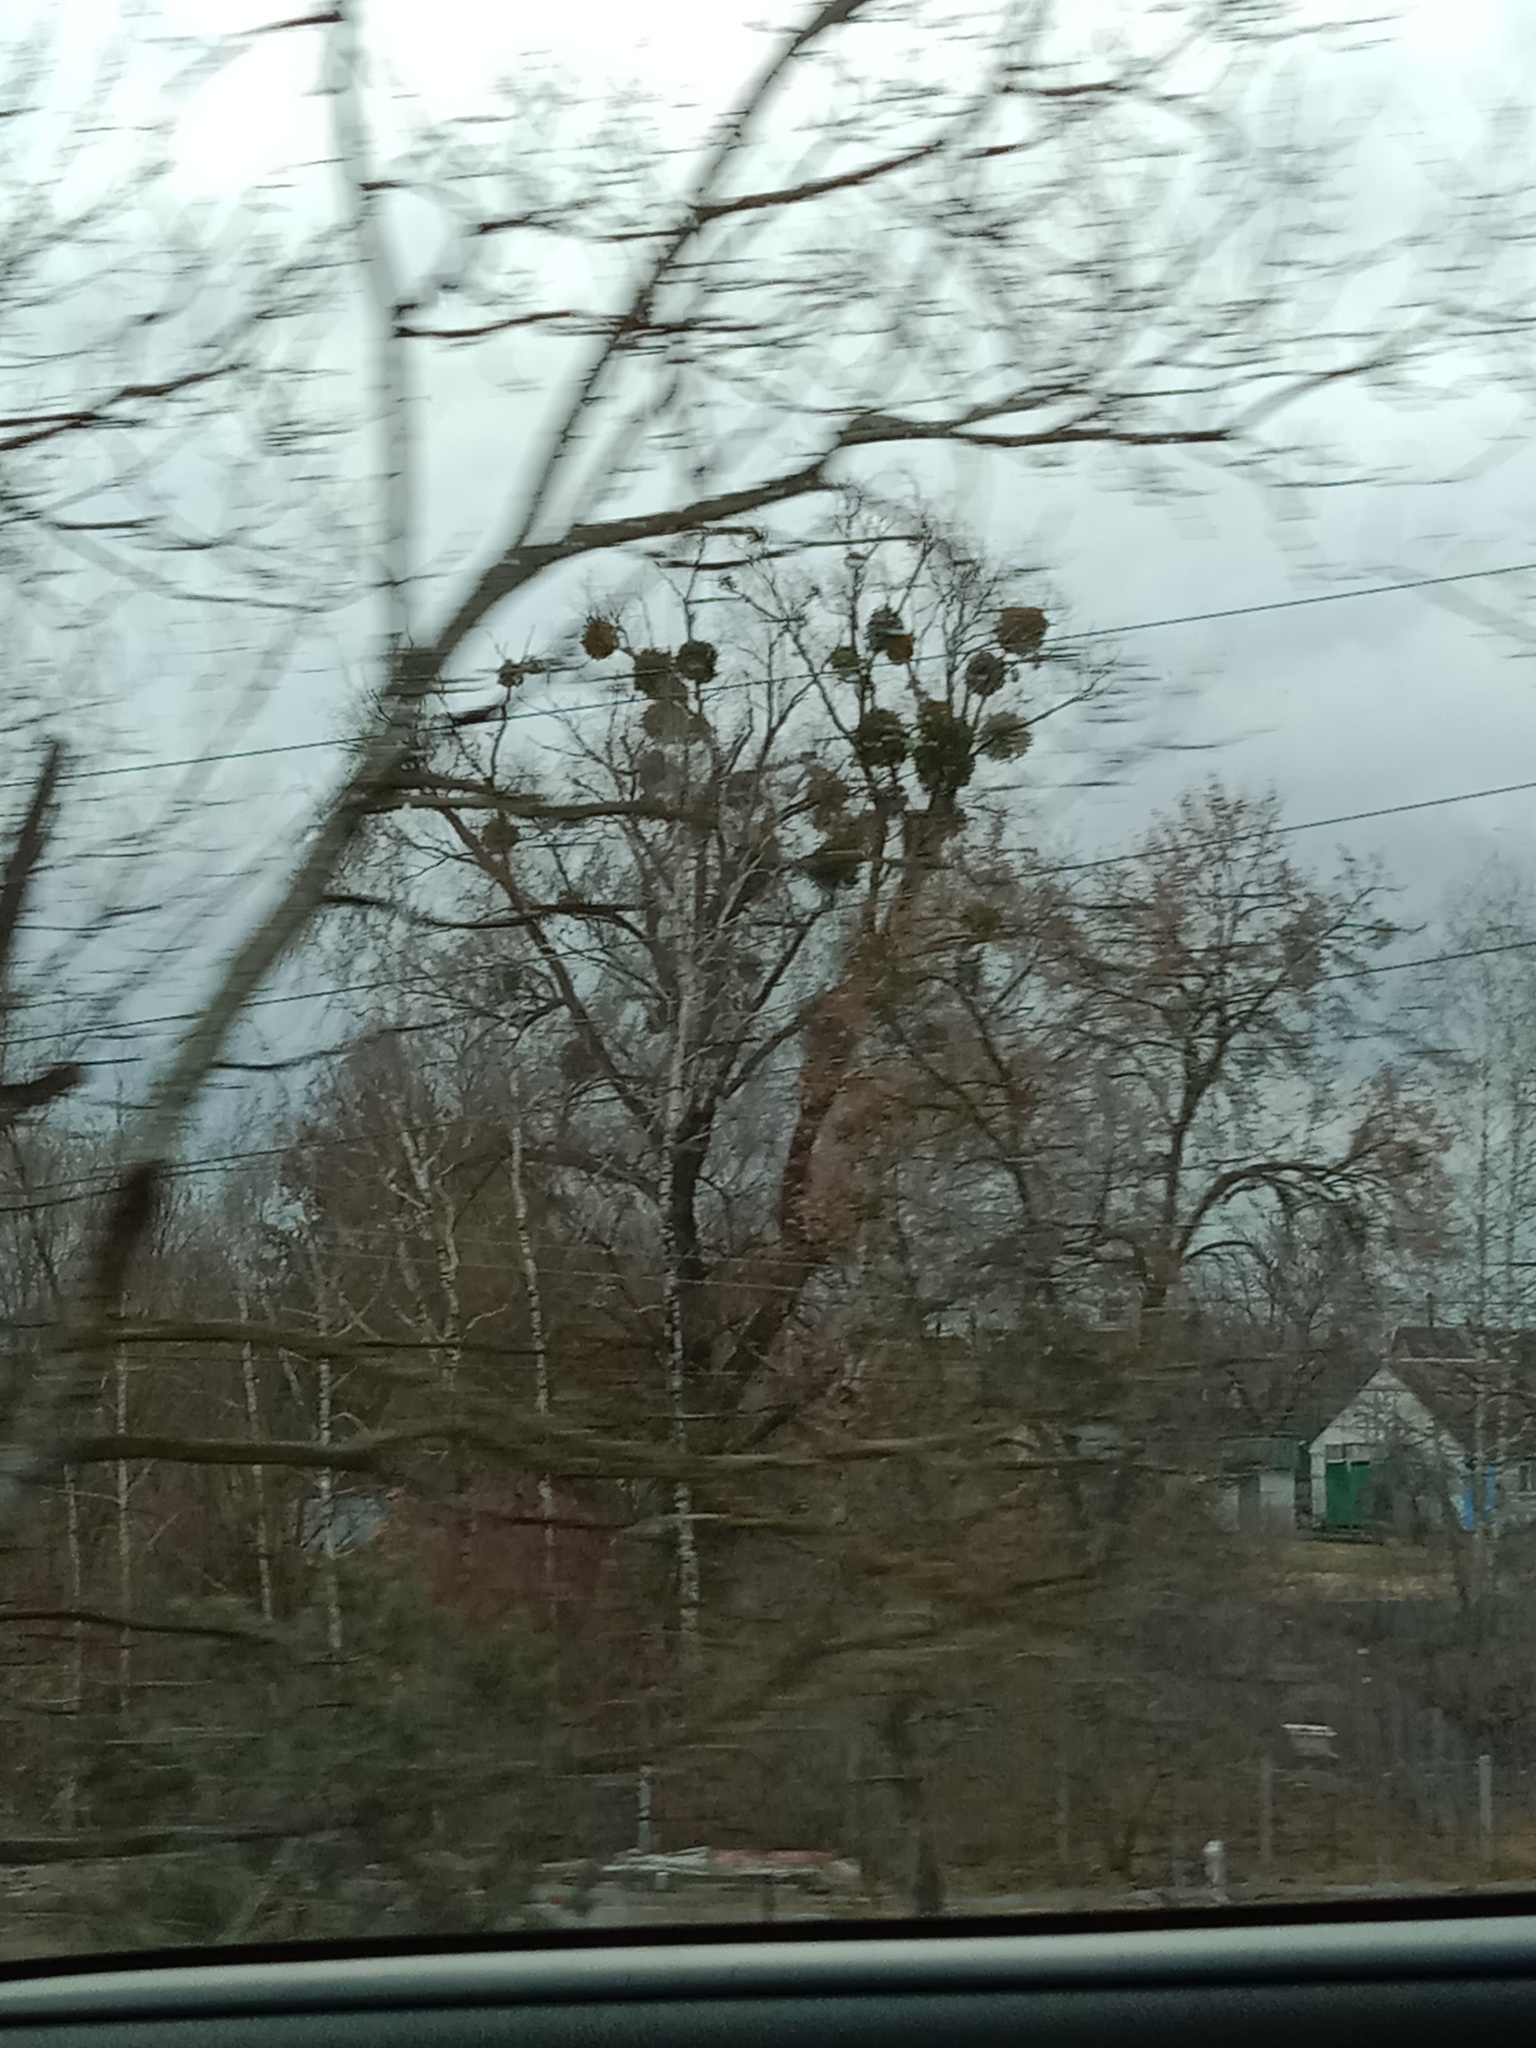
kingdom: Plantae
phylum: Tracheophyta
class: Magnoliopsida
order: Santalales
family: Viscaceae
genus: Viscum
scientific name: Viscum album
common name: Mistletoe
